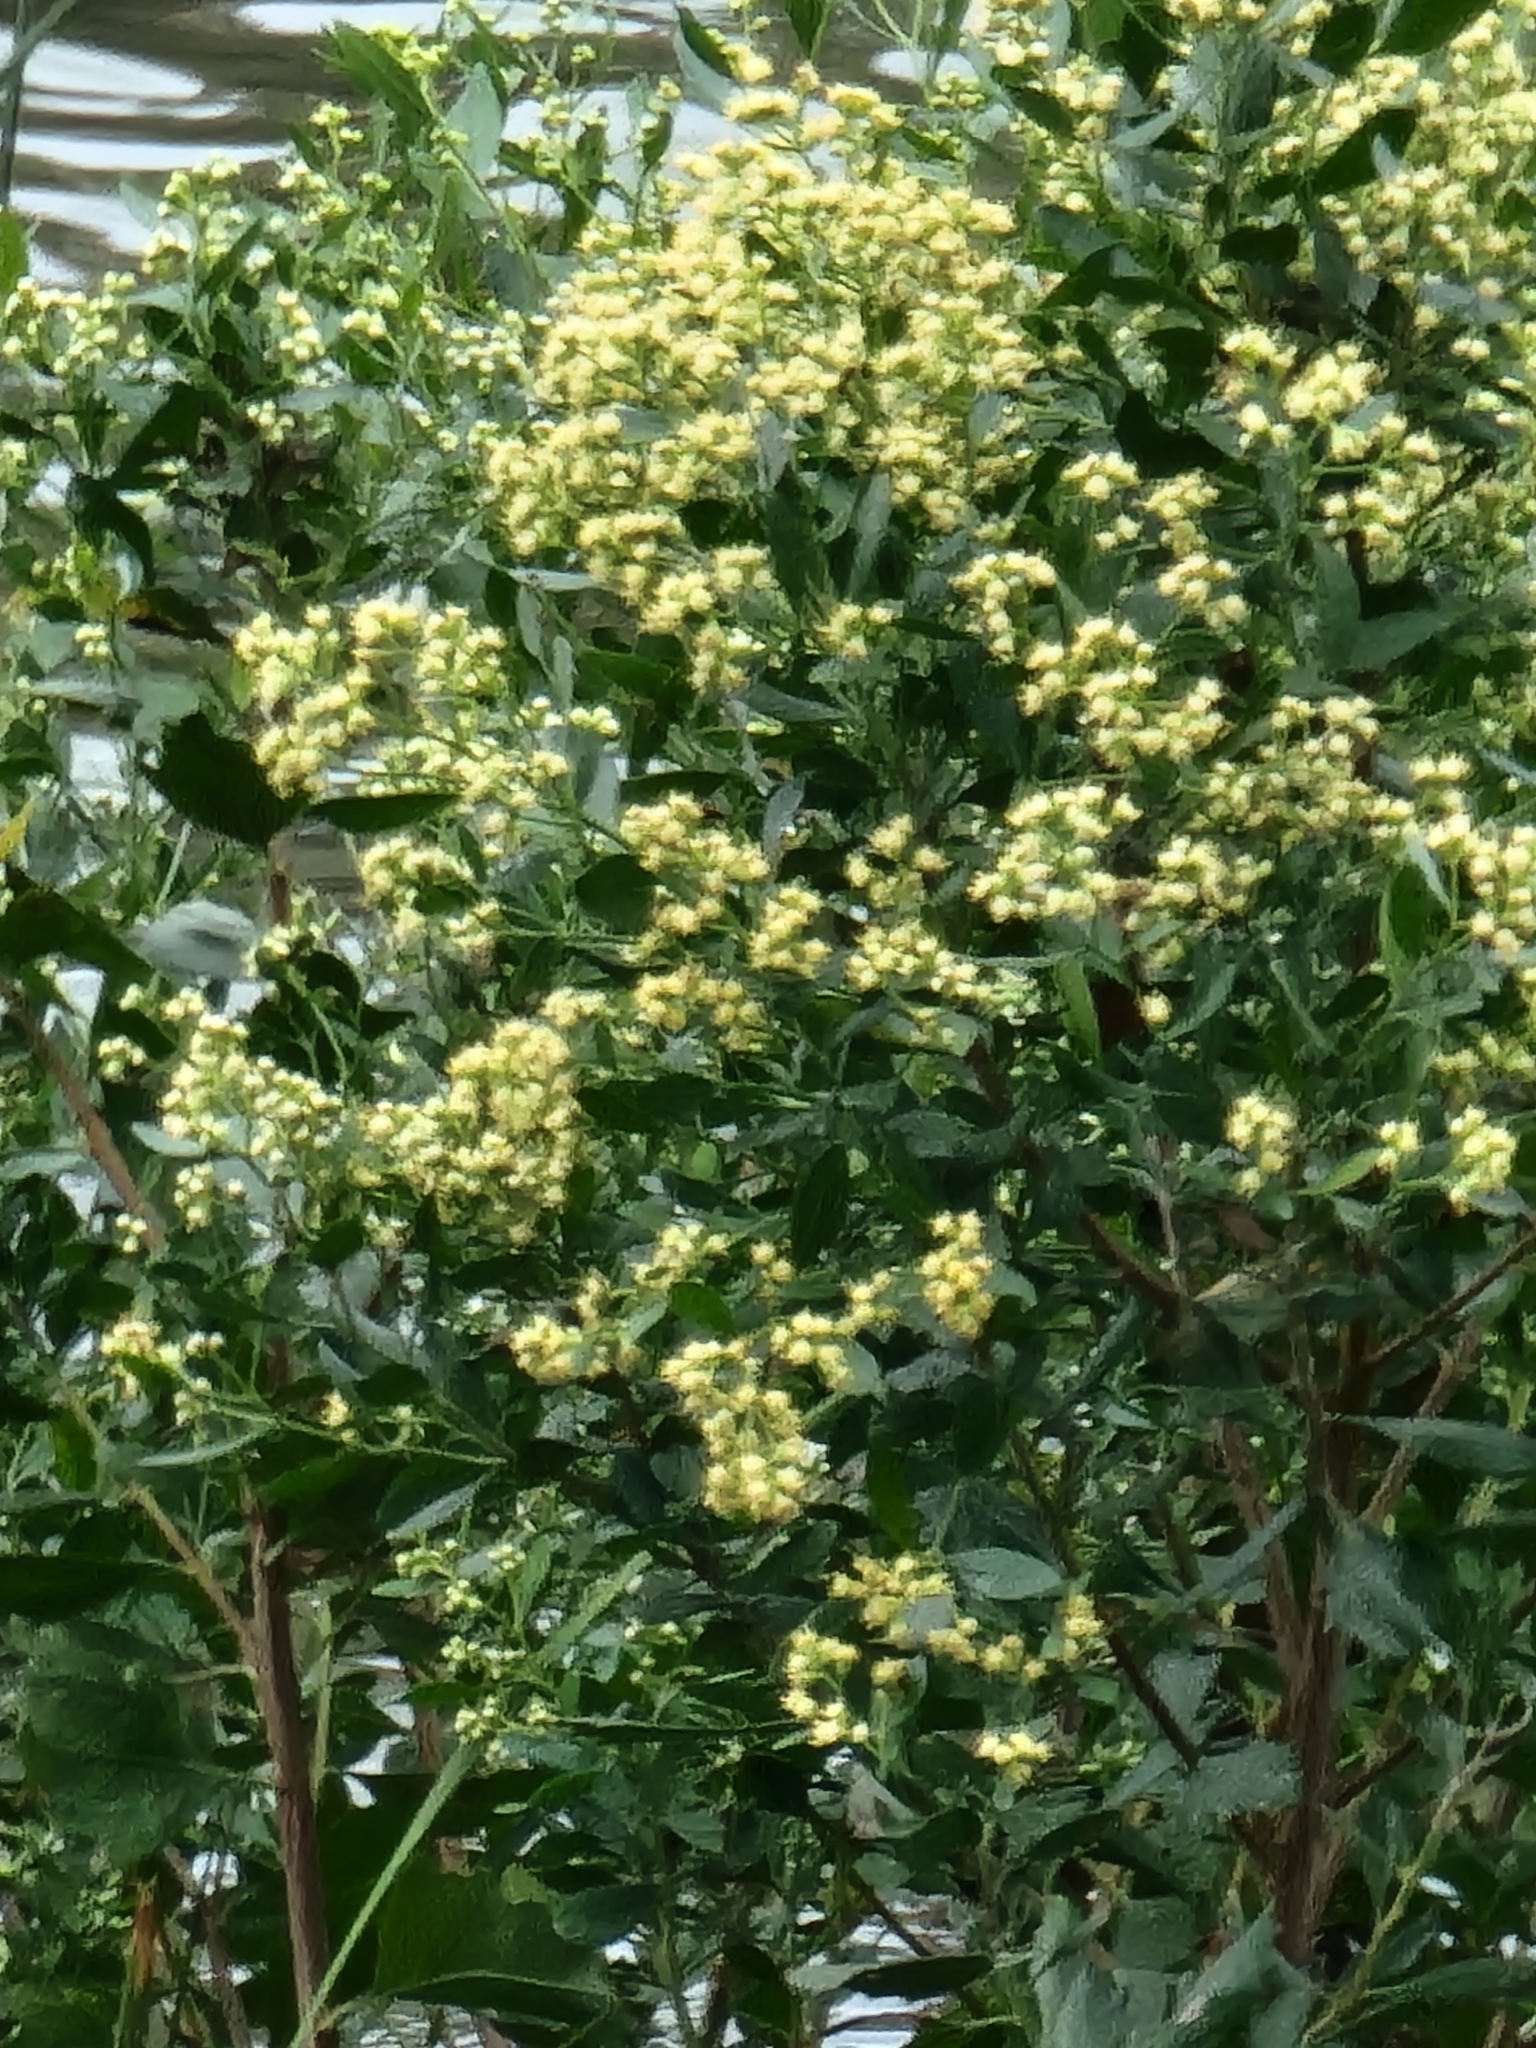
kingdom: Plantae
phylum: Tracheophyta
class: Magnoliopsida
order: Asterales
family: Asteraceae
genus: Baccharis
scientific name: Baccharis halimifolia
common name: Eastern baccharis
